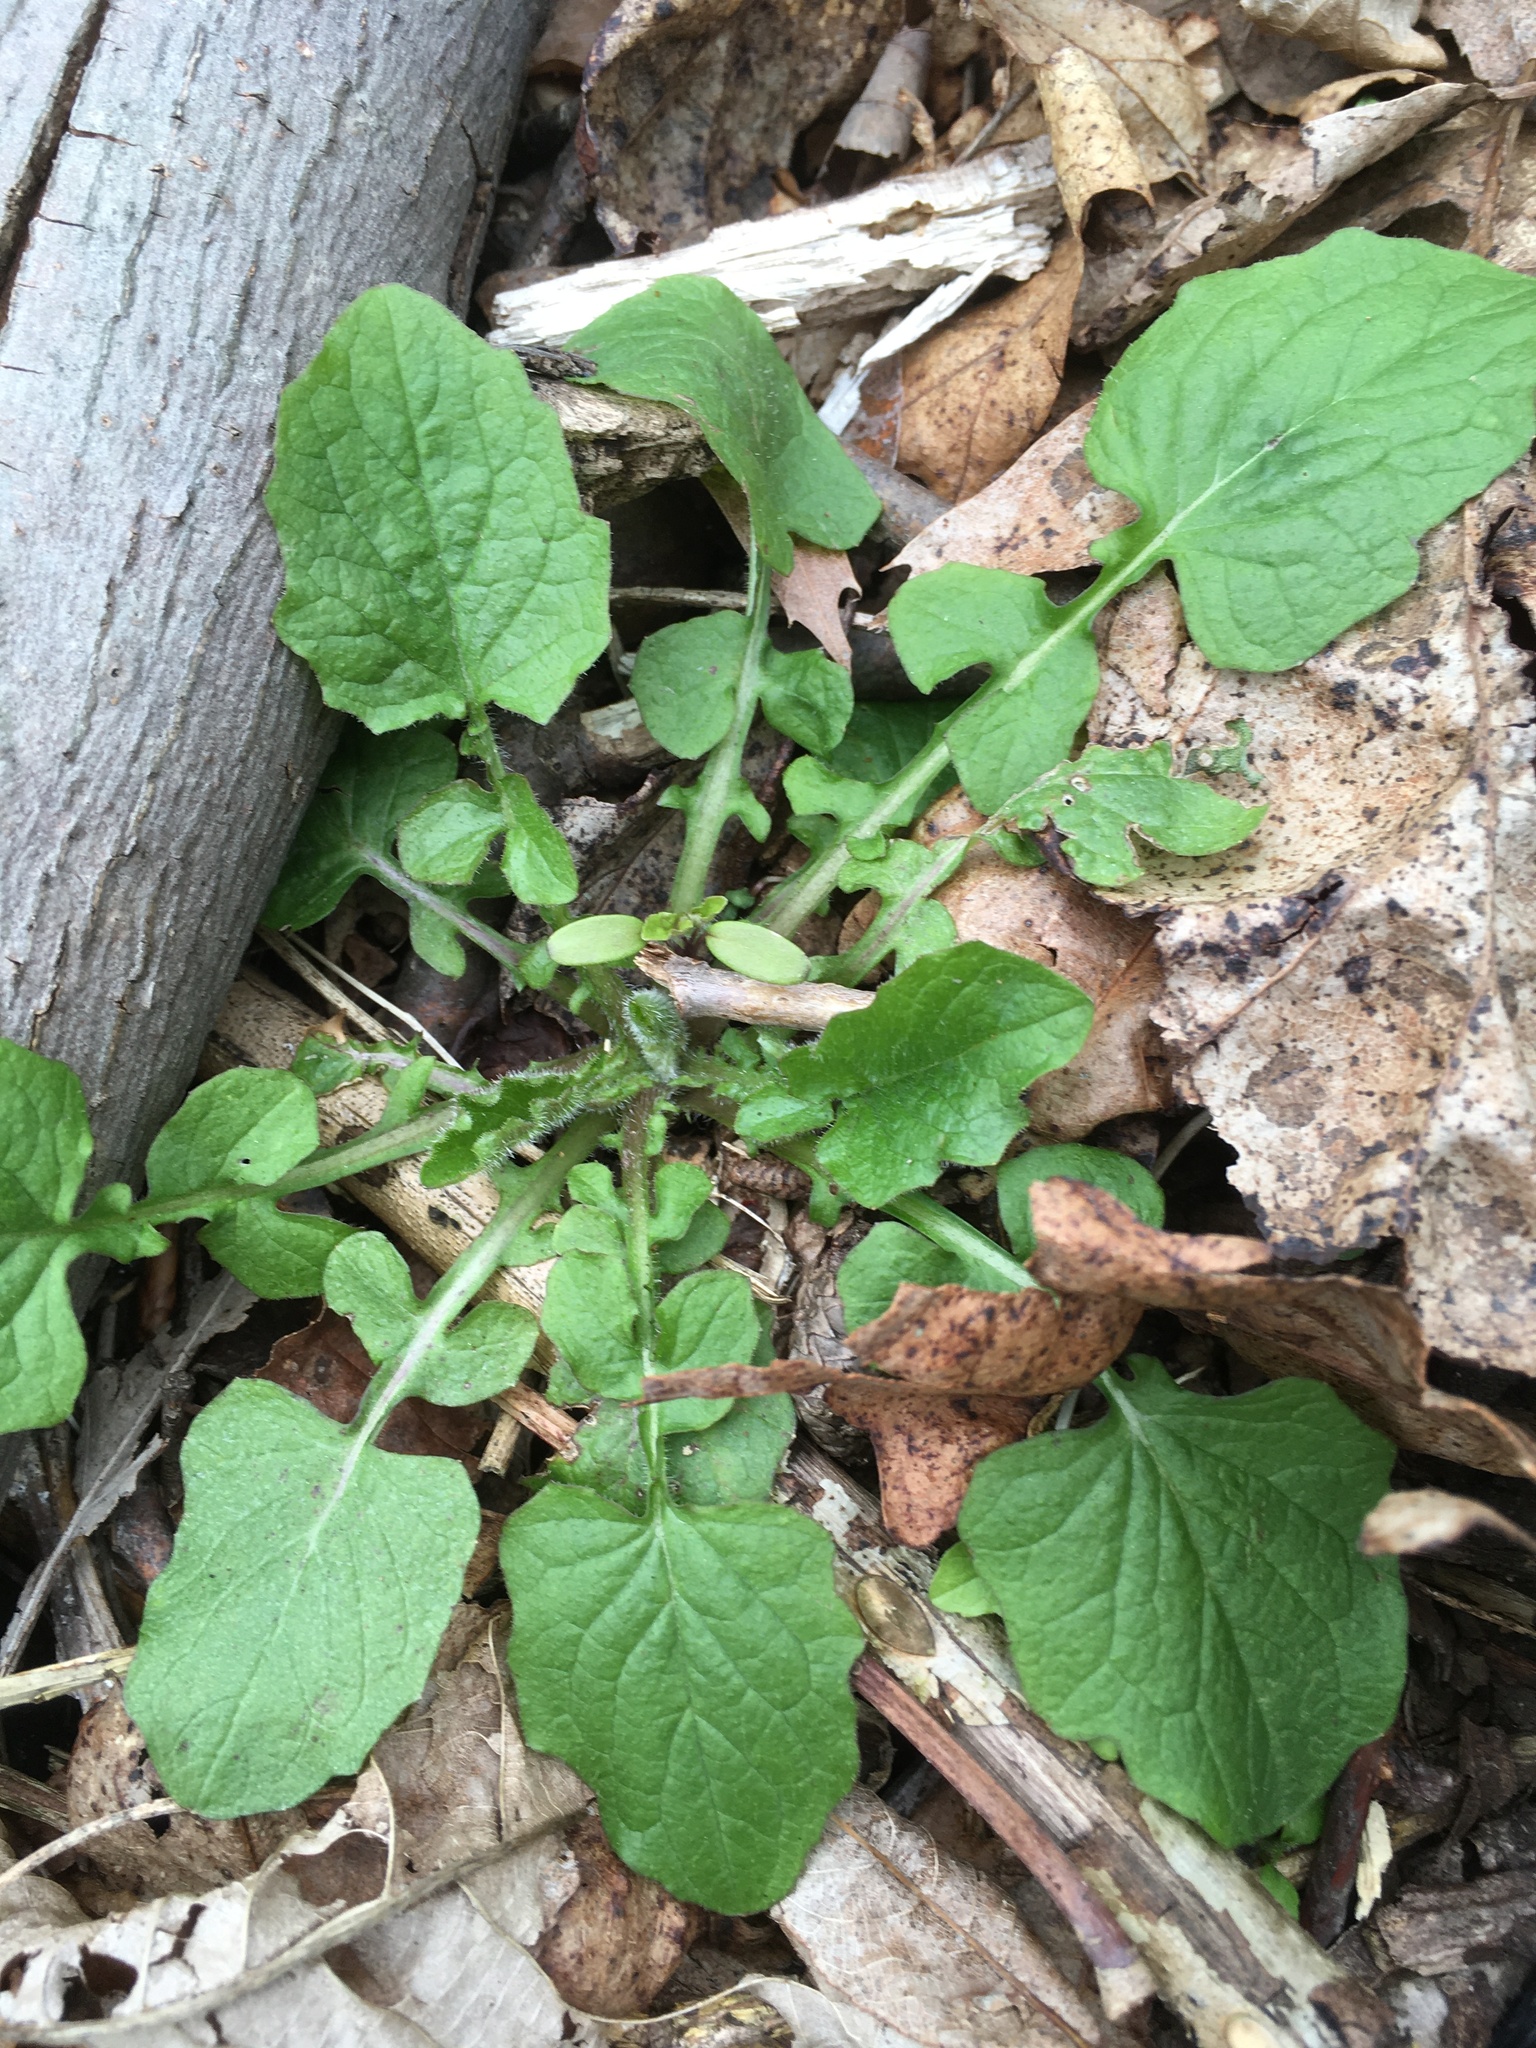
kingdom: Plantae
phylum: Tracheophyta
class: Magnoliopsida
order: Asterales
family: Asteraceae
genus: Lapsana
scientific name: Lapsana communis
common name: Nipplewort
